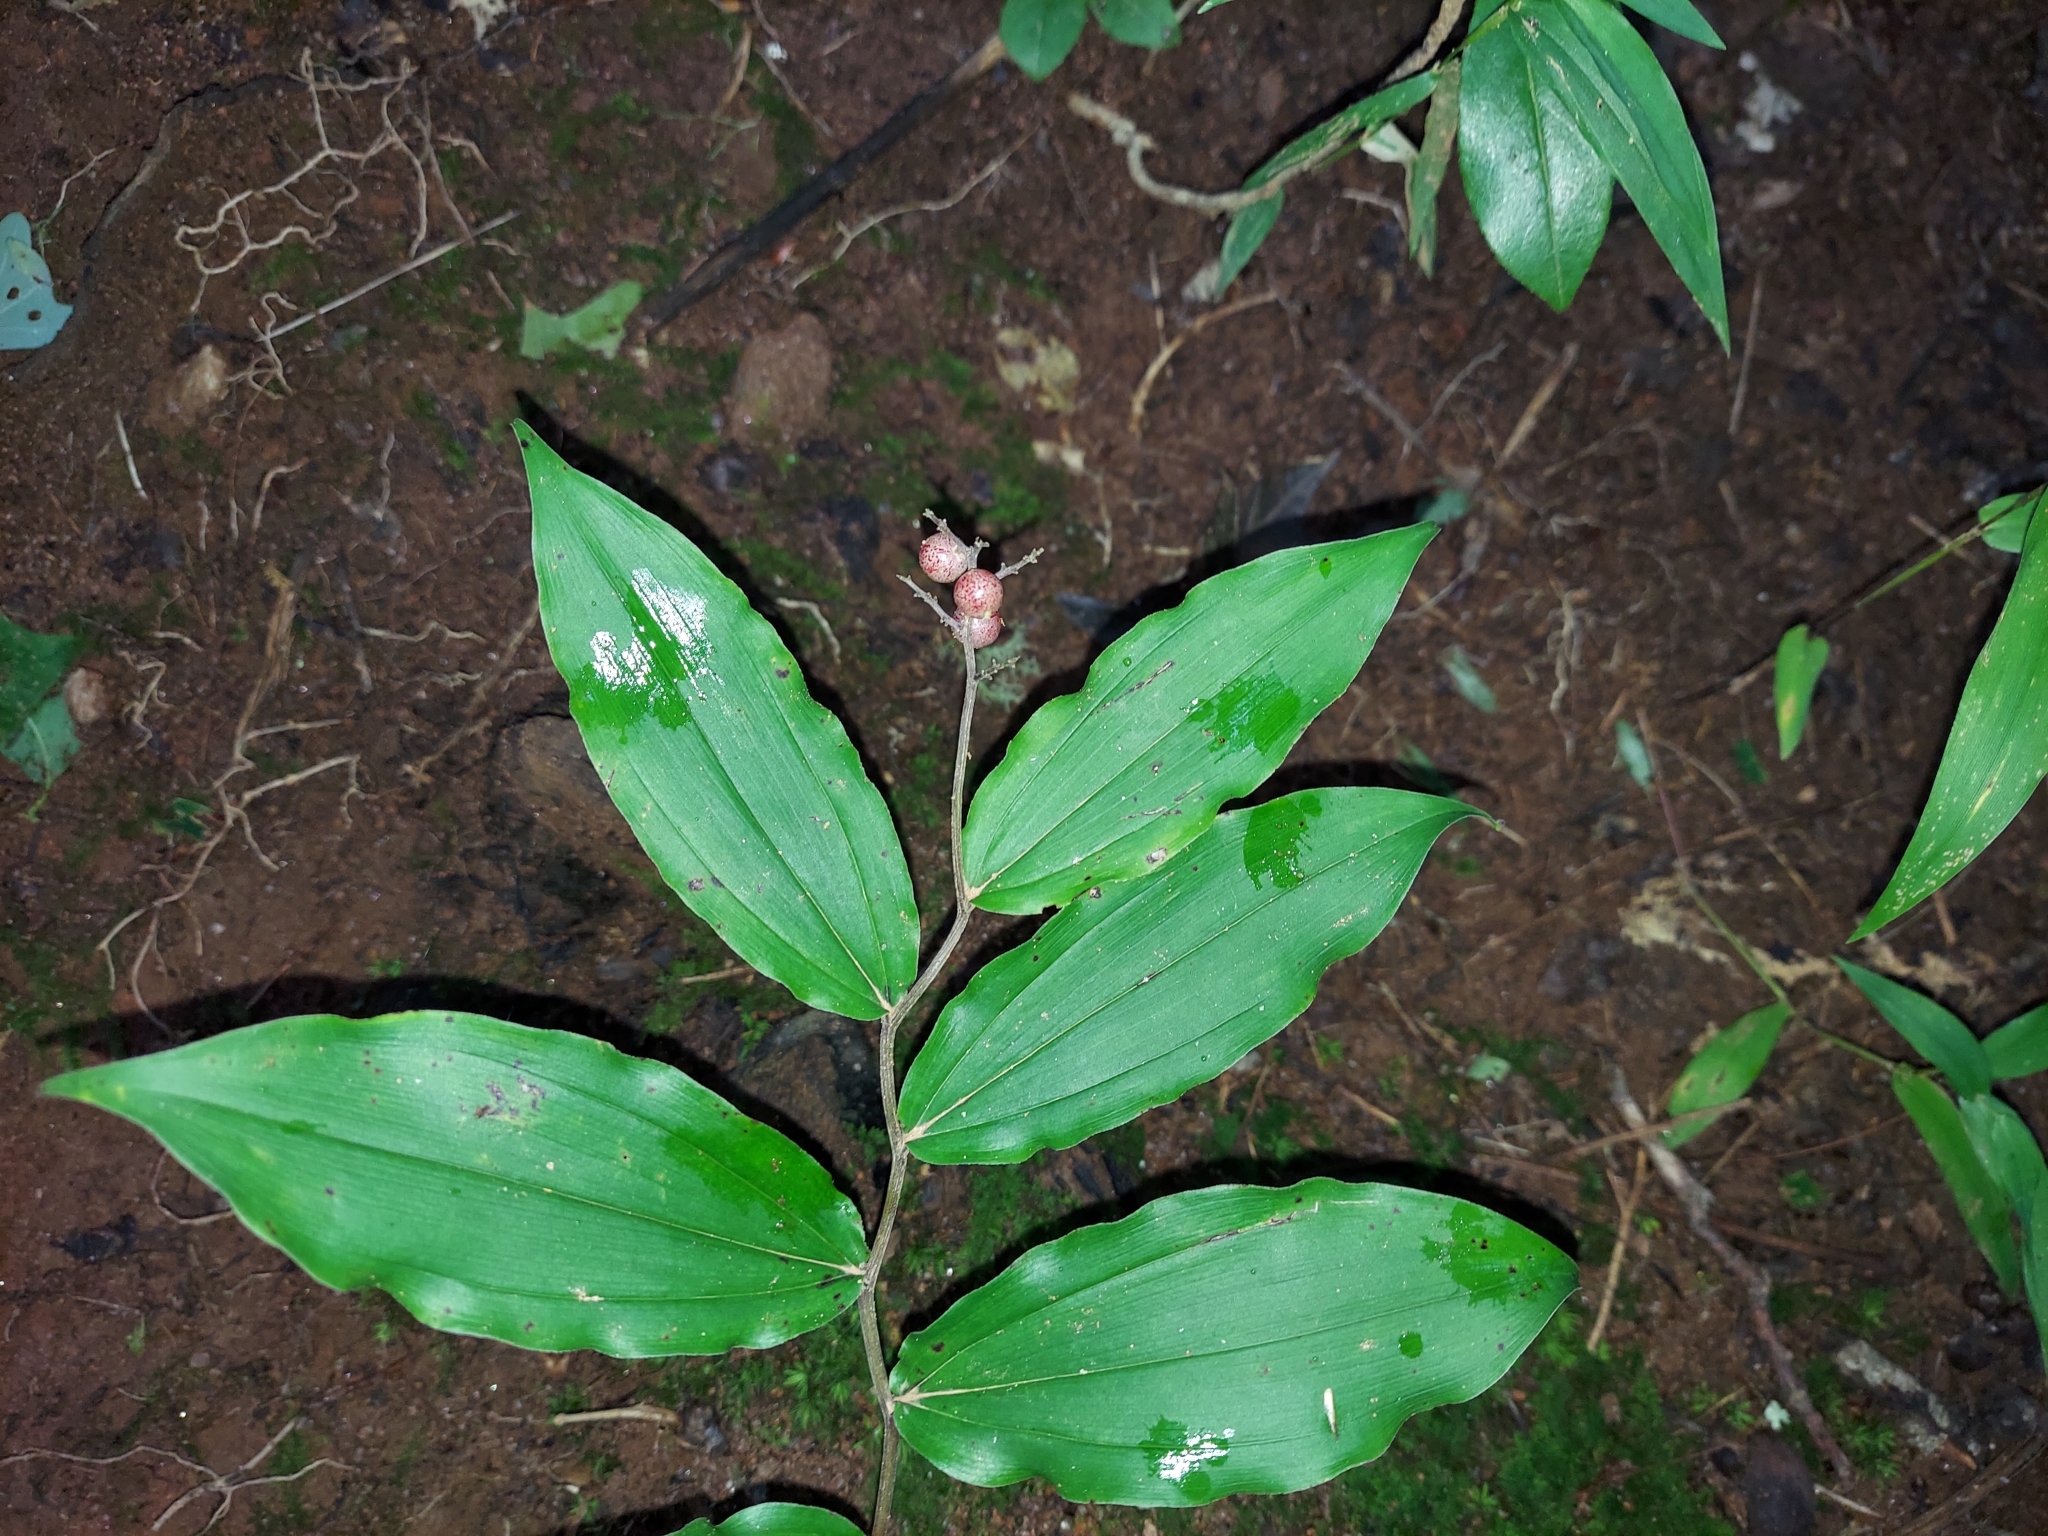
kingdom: Plantae
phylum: Tracheophyta
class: Liliopsida
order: Asparagales
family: Asparagaceae
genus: Maianthemum
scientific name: Maianthemum racemosum
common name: False spikenard
